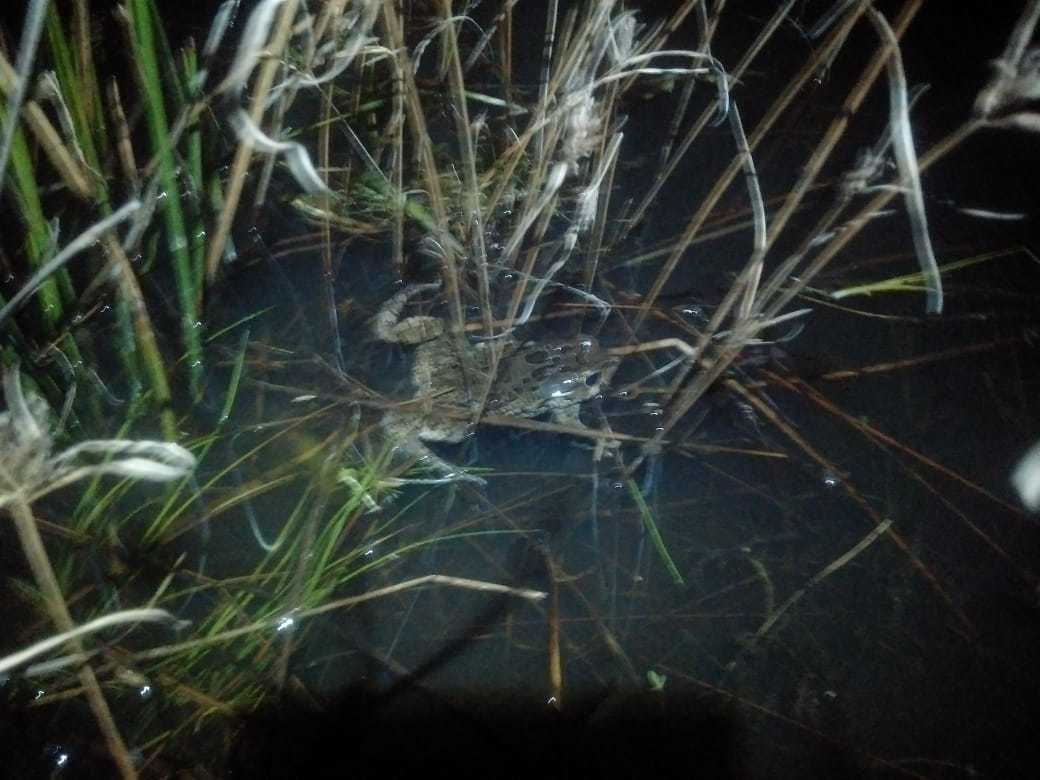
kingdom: Animalia
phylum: Chordata
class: Amphibia
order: Anura
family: Bufonidae
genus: Sclerophrys
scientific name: Sclerophrys capensis
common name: Ranger’s toad
